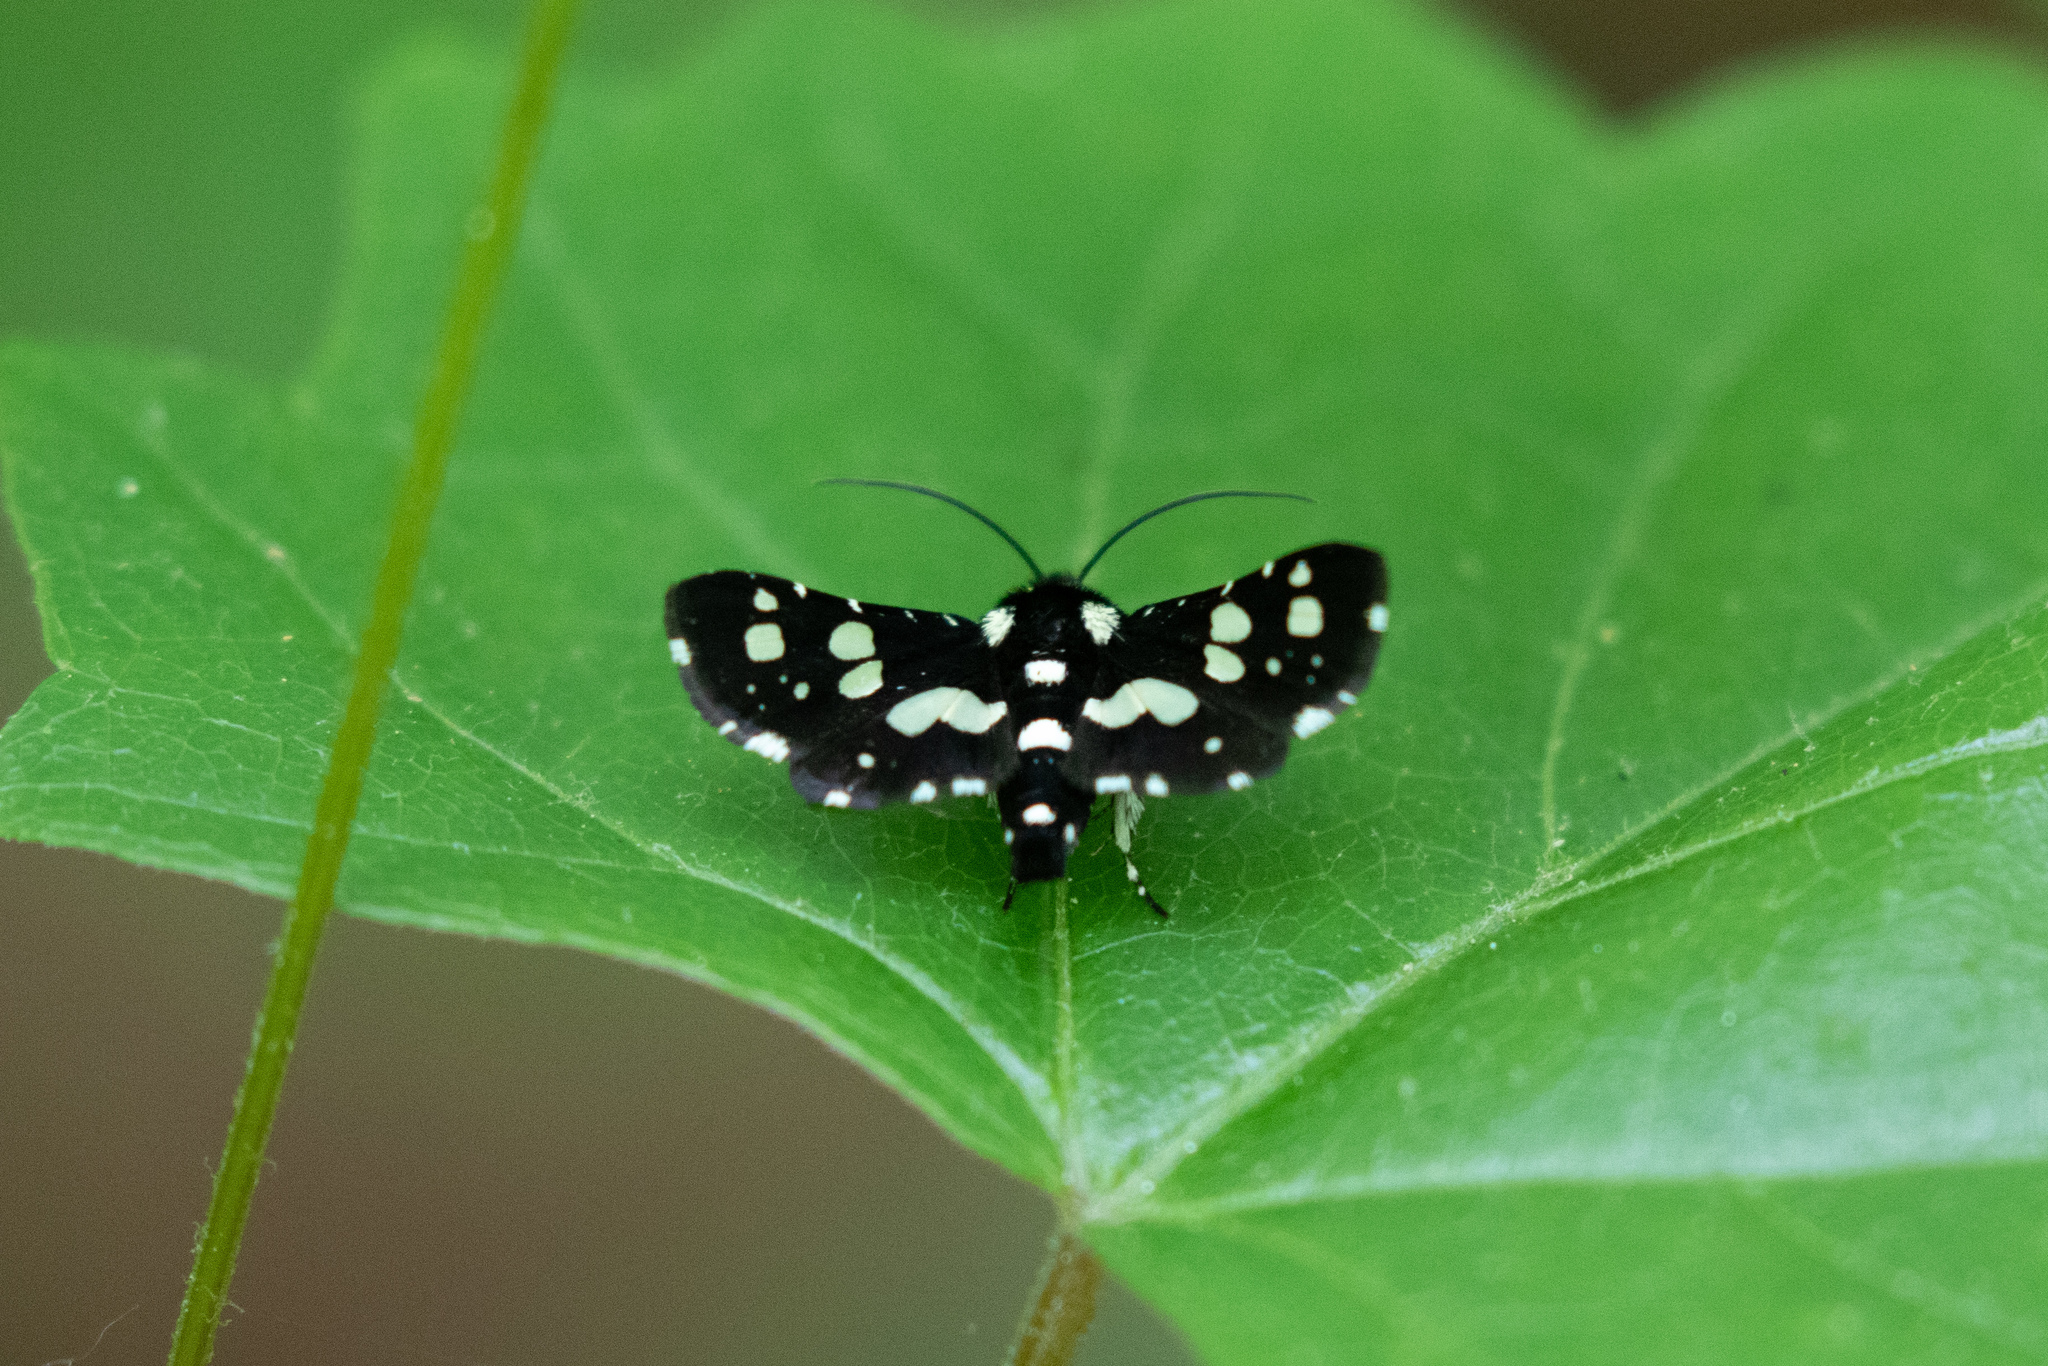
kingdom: Animalia
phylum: Arthropoda
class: Insecta
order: Lepidoptera
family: Thyrididae
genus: Pseudothyris
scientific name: Pseudothyris sepulchralis
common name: Mournful thyris moth
